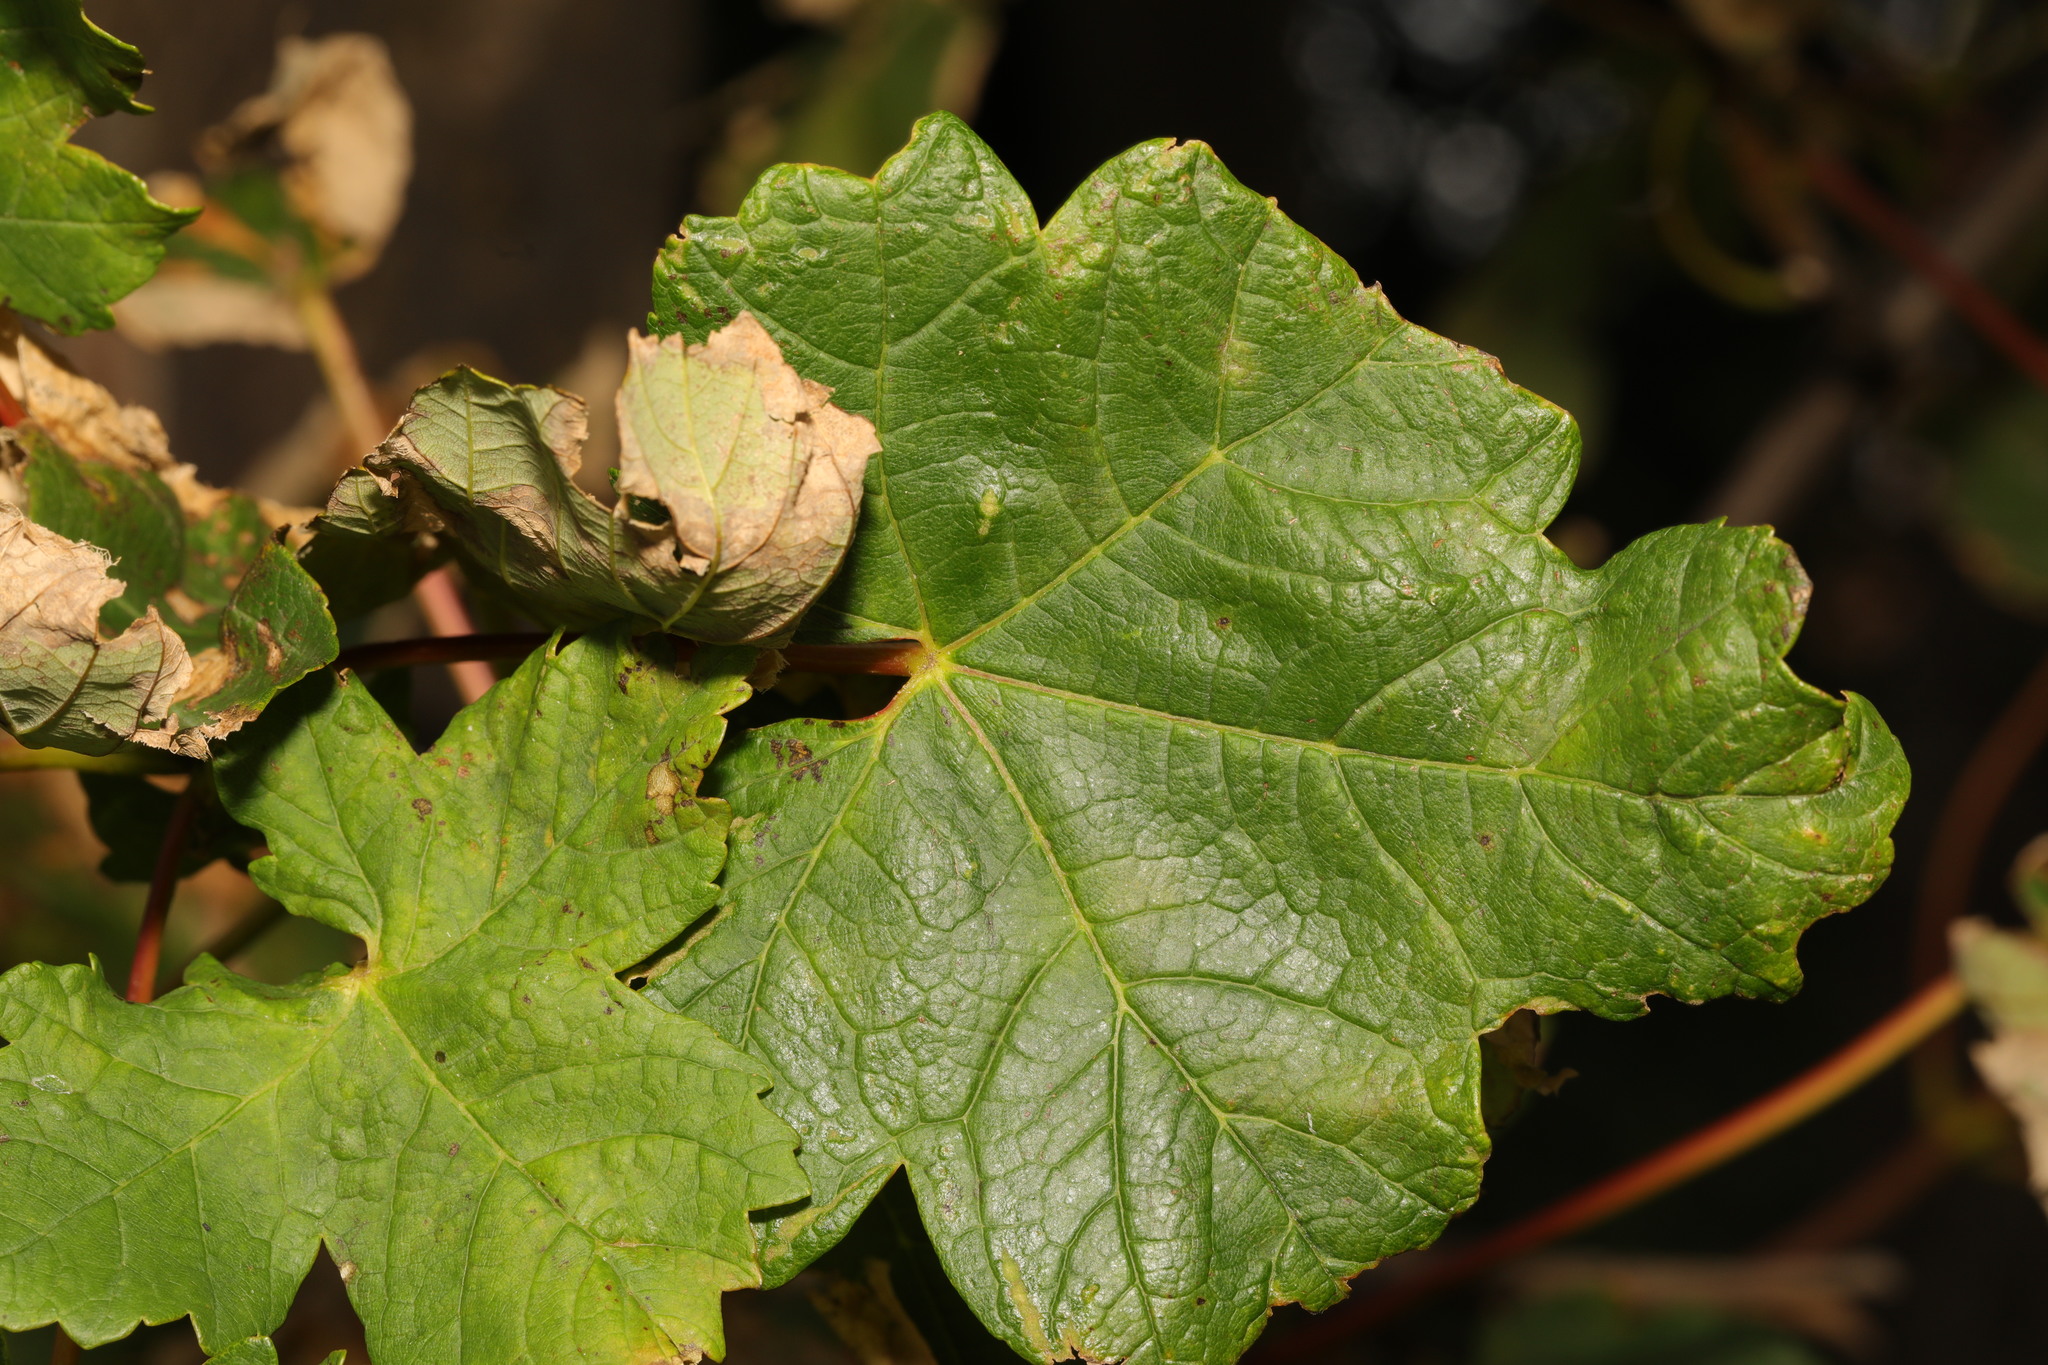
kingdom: Plantae
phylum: Tracheophyta
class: Magnoliopsida
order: Sapindales
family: Sapindaceae
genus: Acer
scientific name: Acer pseudoplatanus
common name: Sycamore
